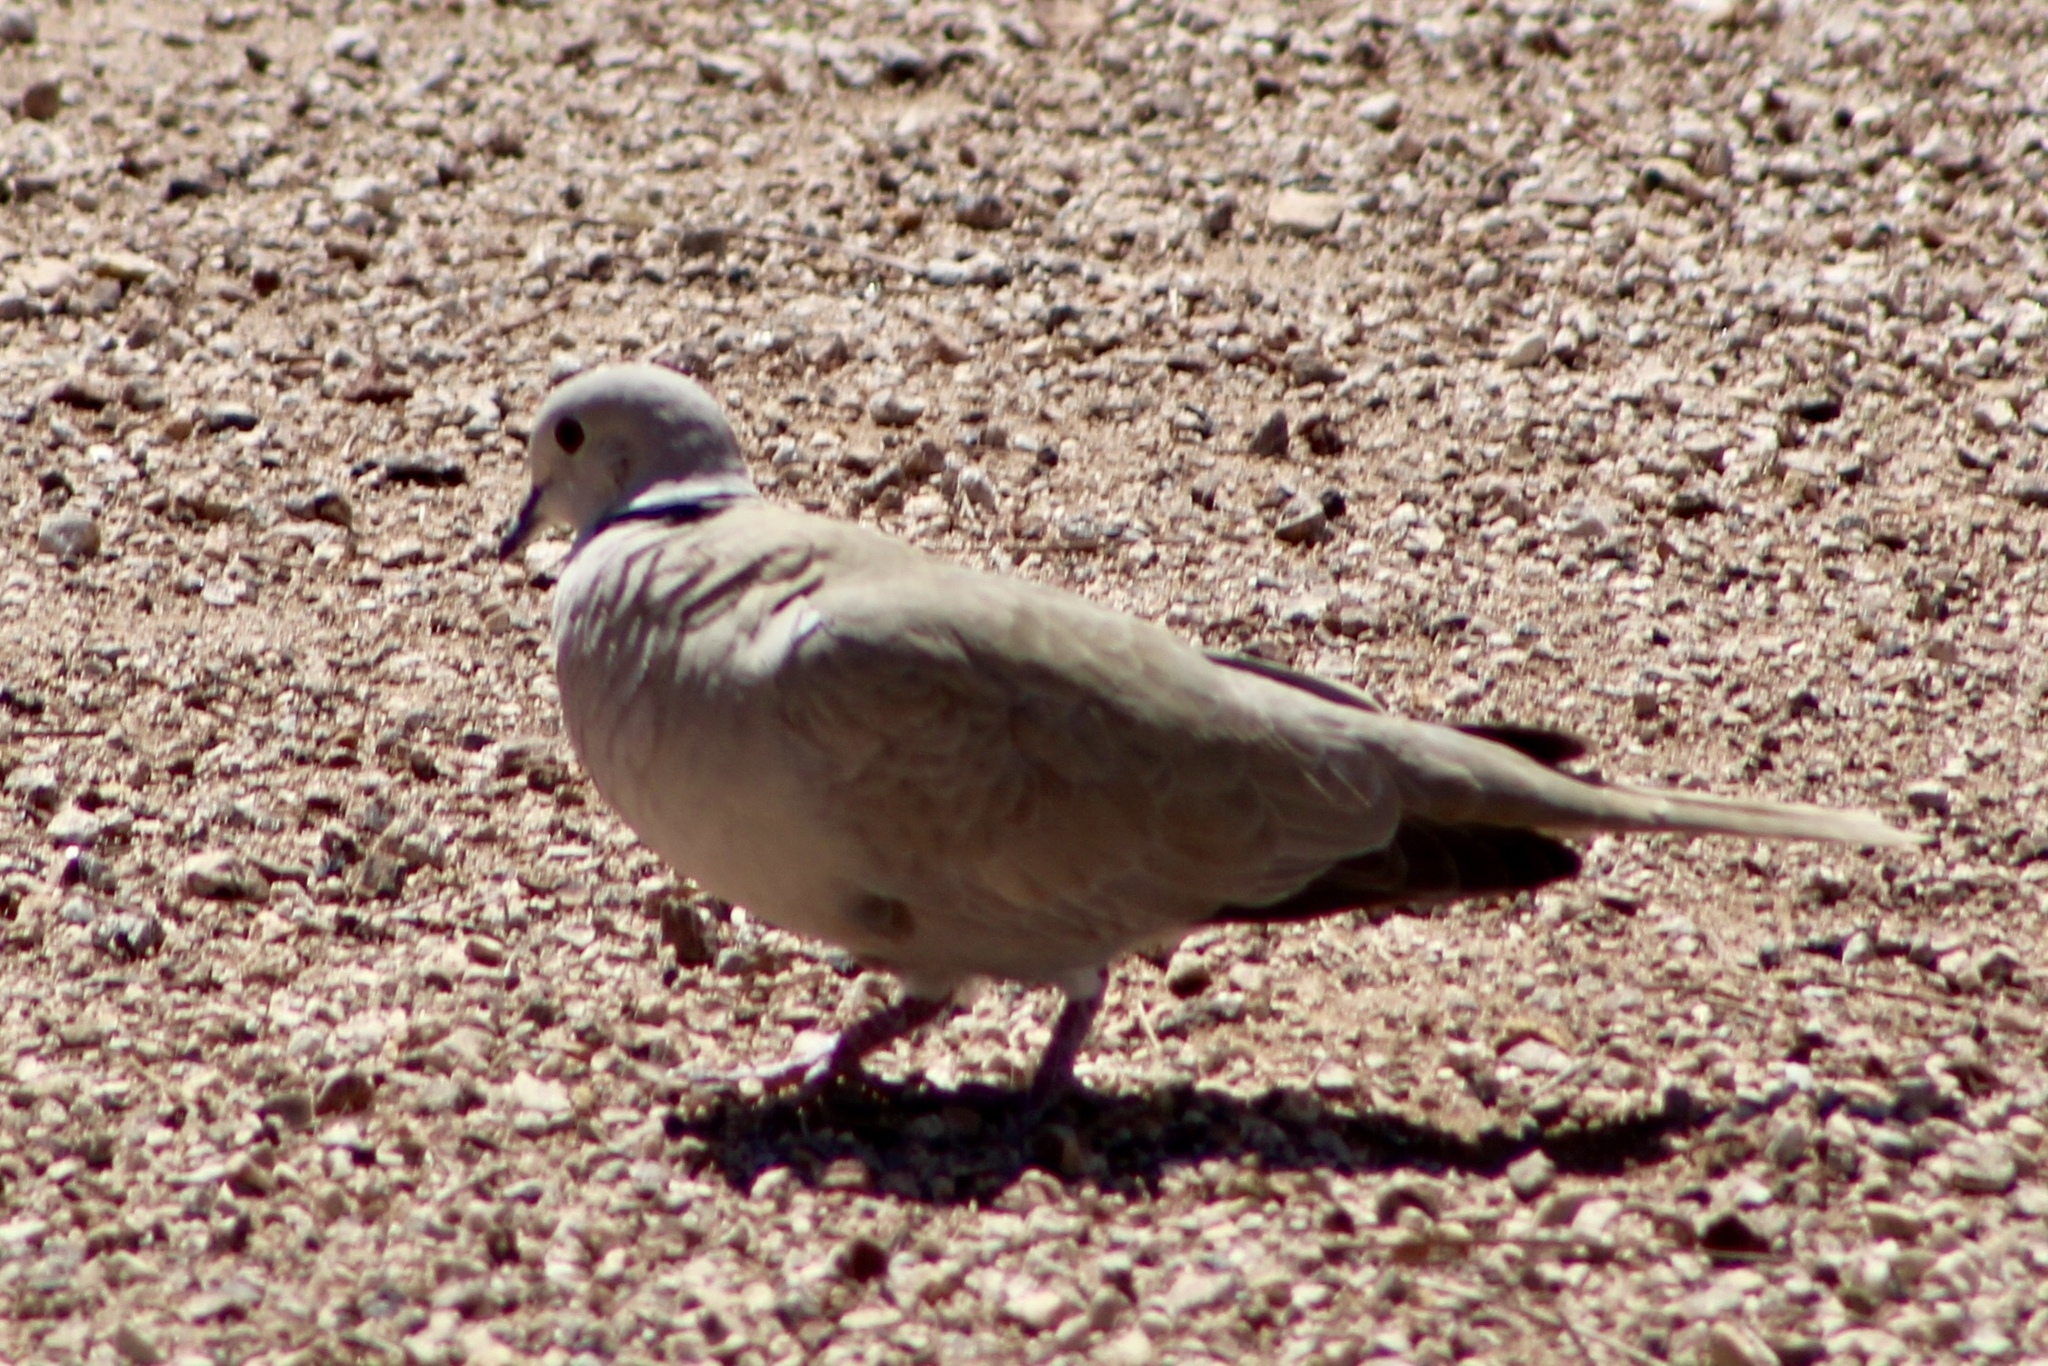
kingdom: Animalia
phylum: Chordata
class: Aves
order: Columbiformes
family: Columbidae
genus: Streptopelia
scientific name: Streptopelia decaocto
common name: Eurasian collared dove
